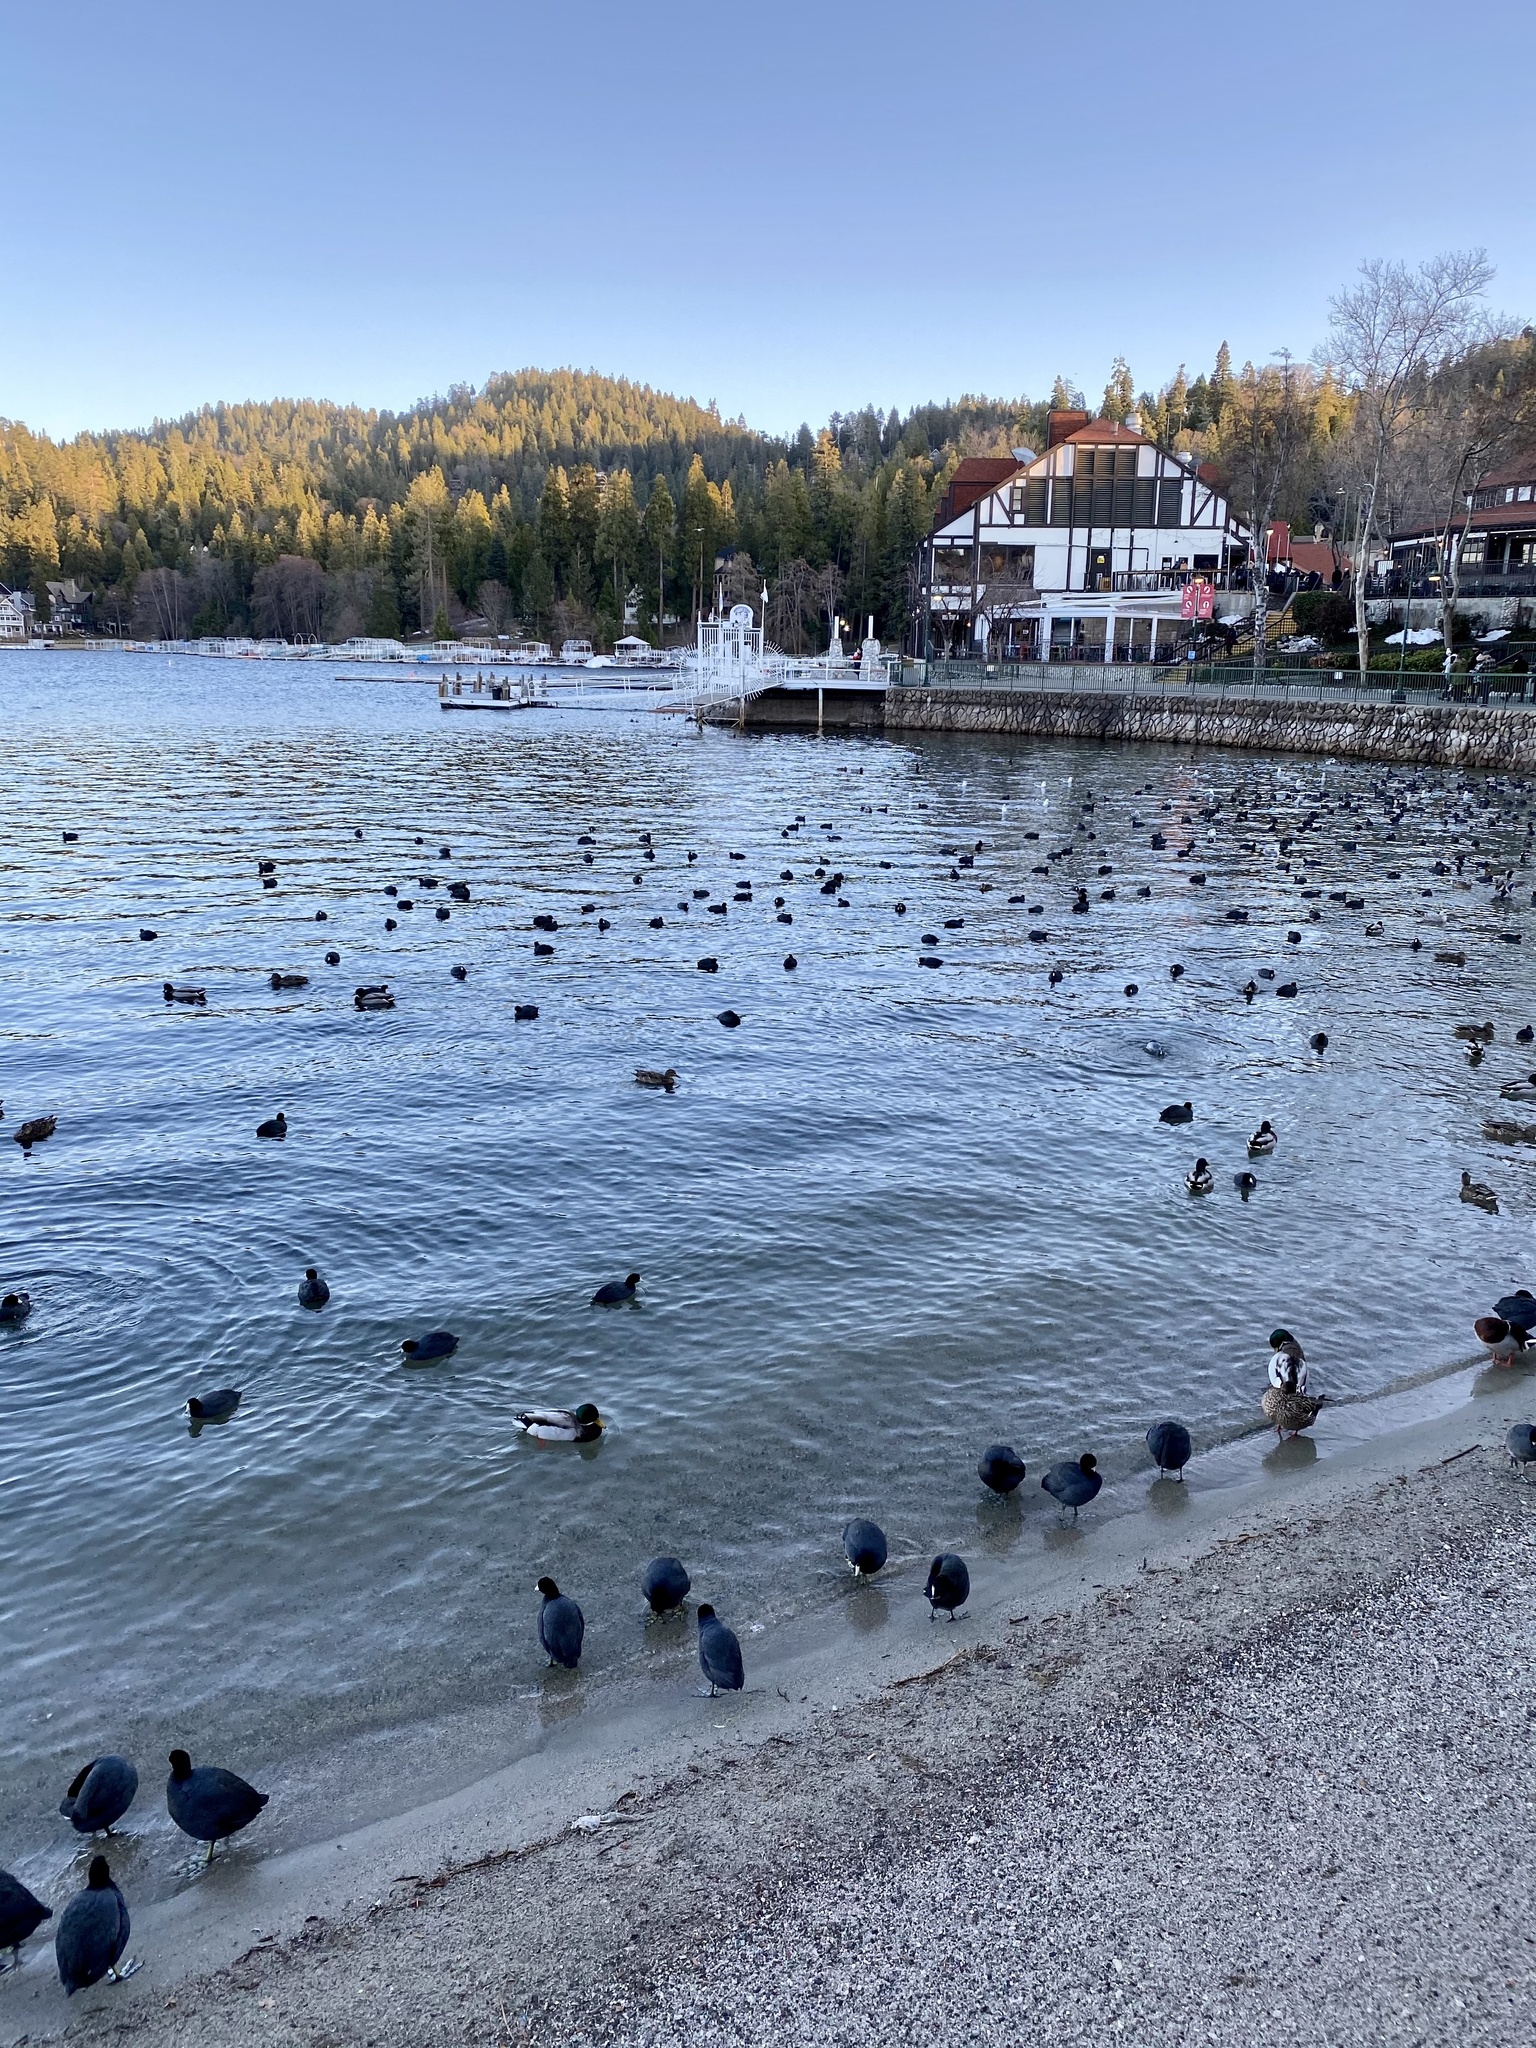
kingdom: Animalia
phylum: Chordata
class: Aves
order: Gruiformes
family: Rallidae
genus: Fulica
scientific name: Fulica americana
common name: American coot
